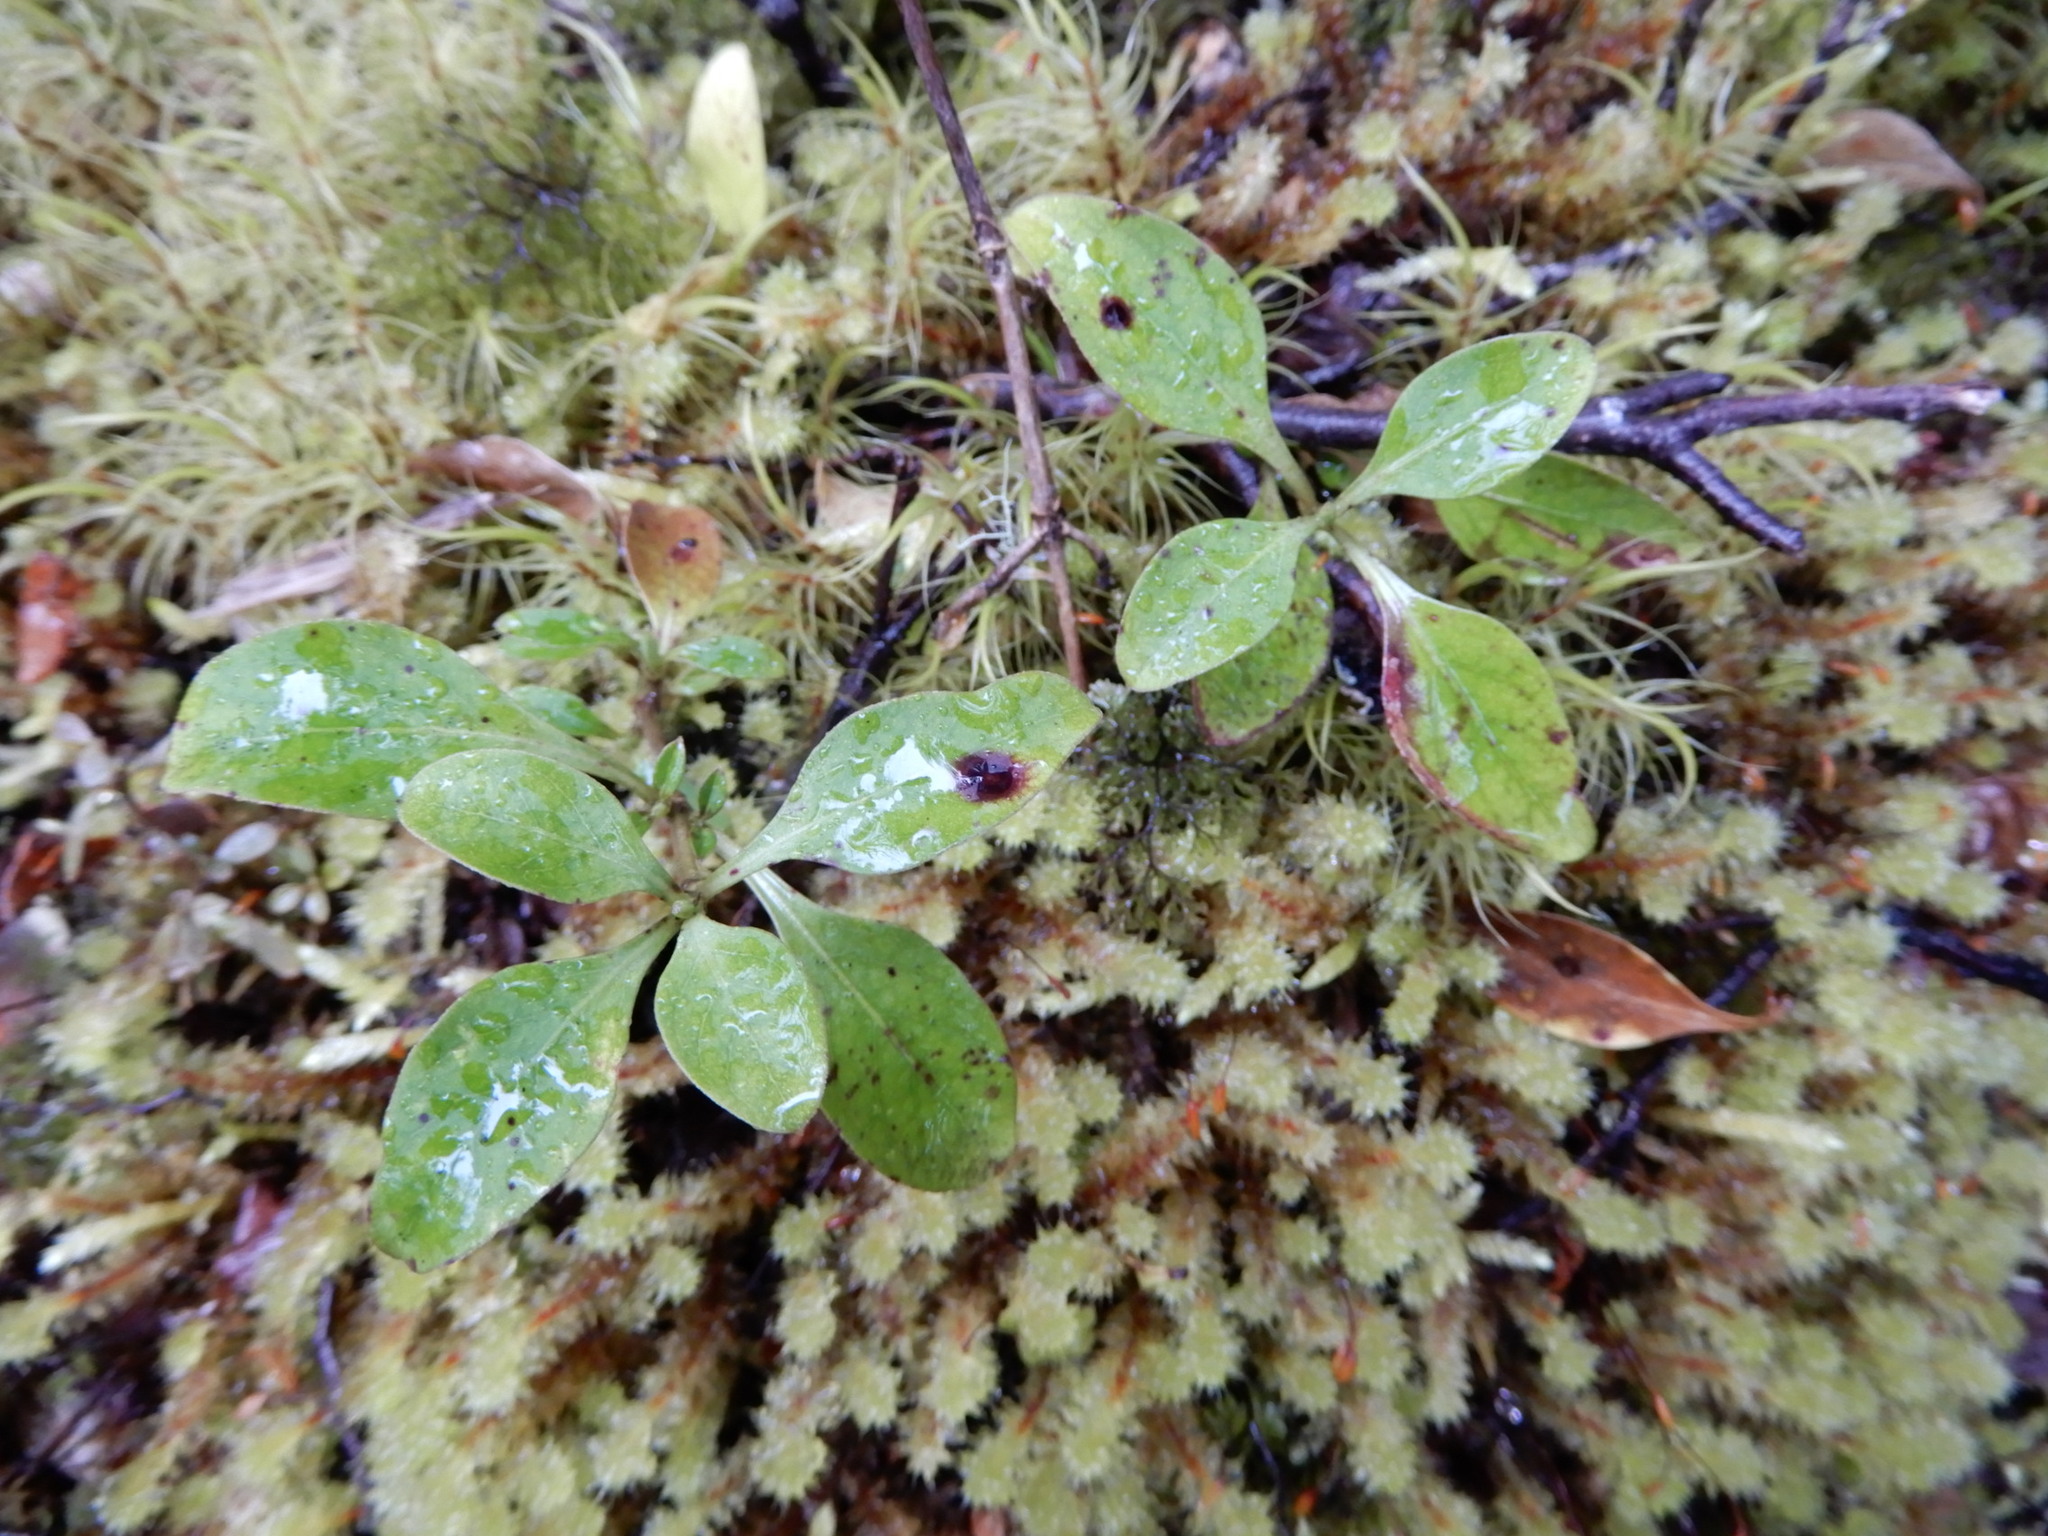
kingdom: Plantae
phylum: Tracheophyta
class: Magnoliopsida
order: Gentianales
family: Rubiaceae
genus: Coprosma
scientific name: Coprosma foetidissima
